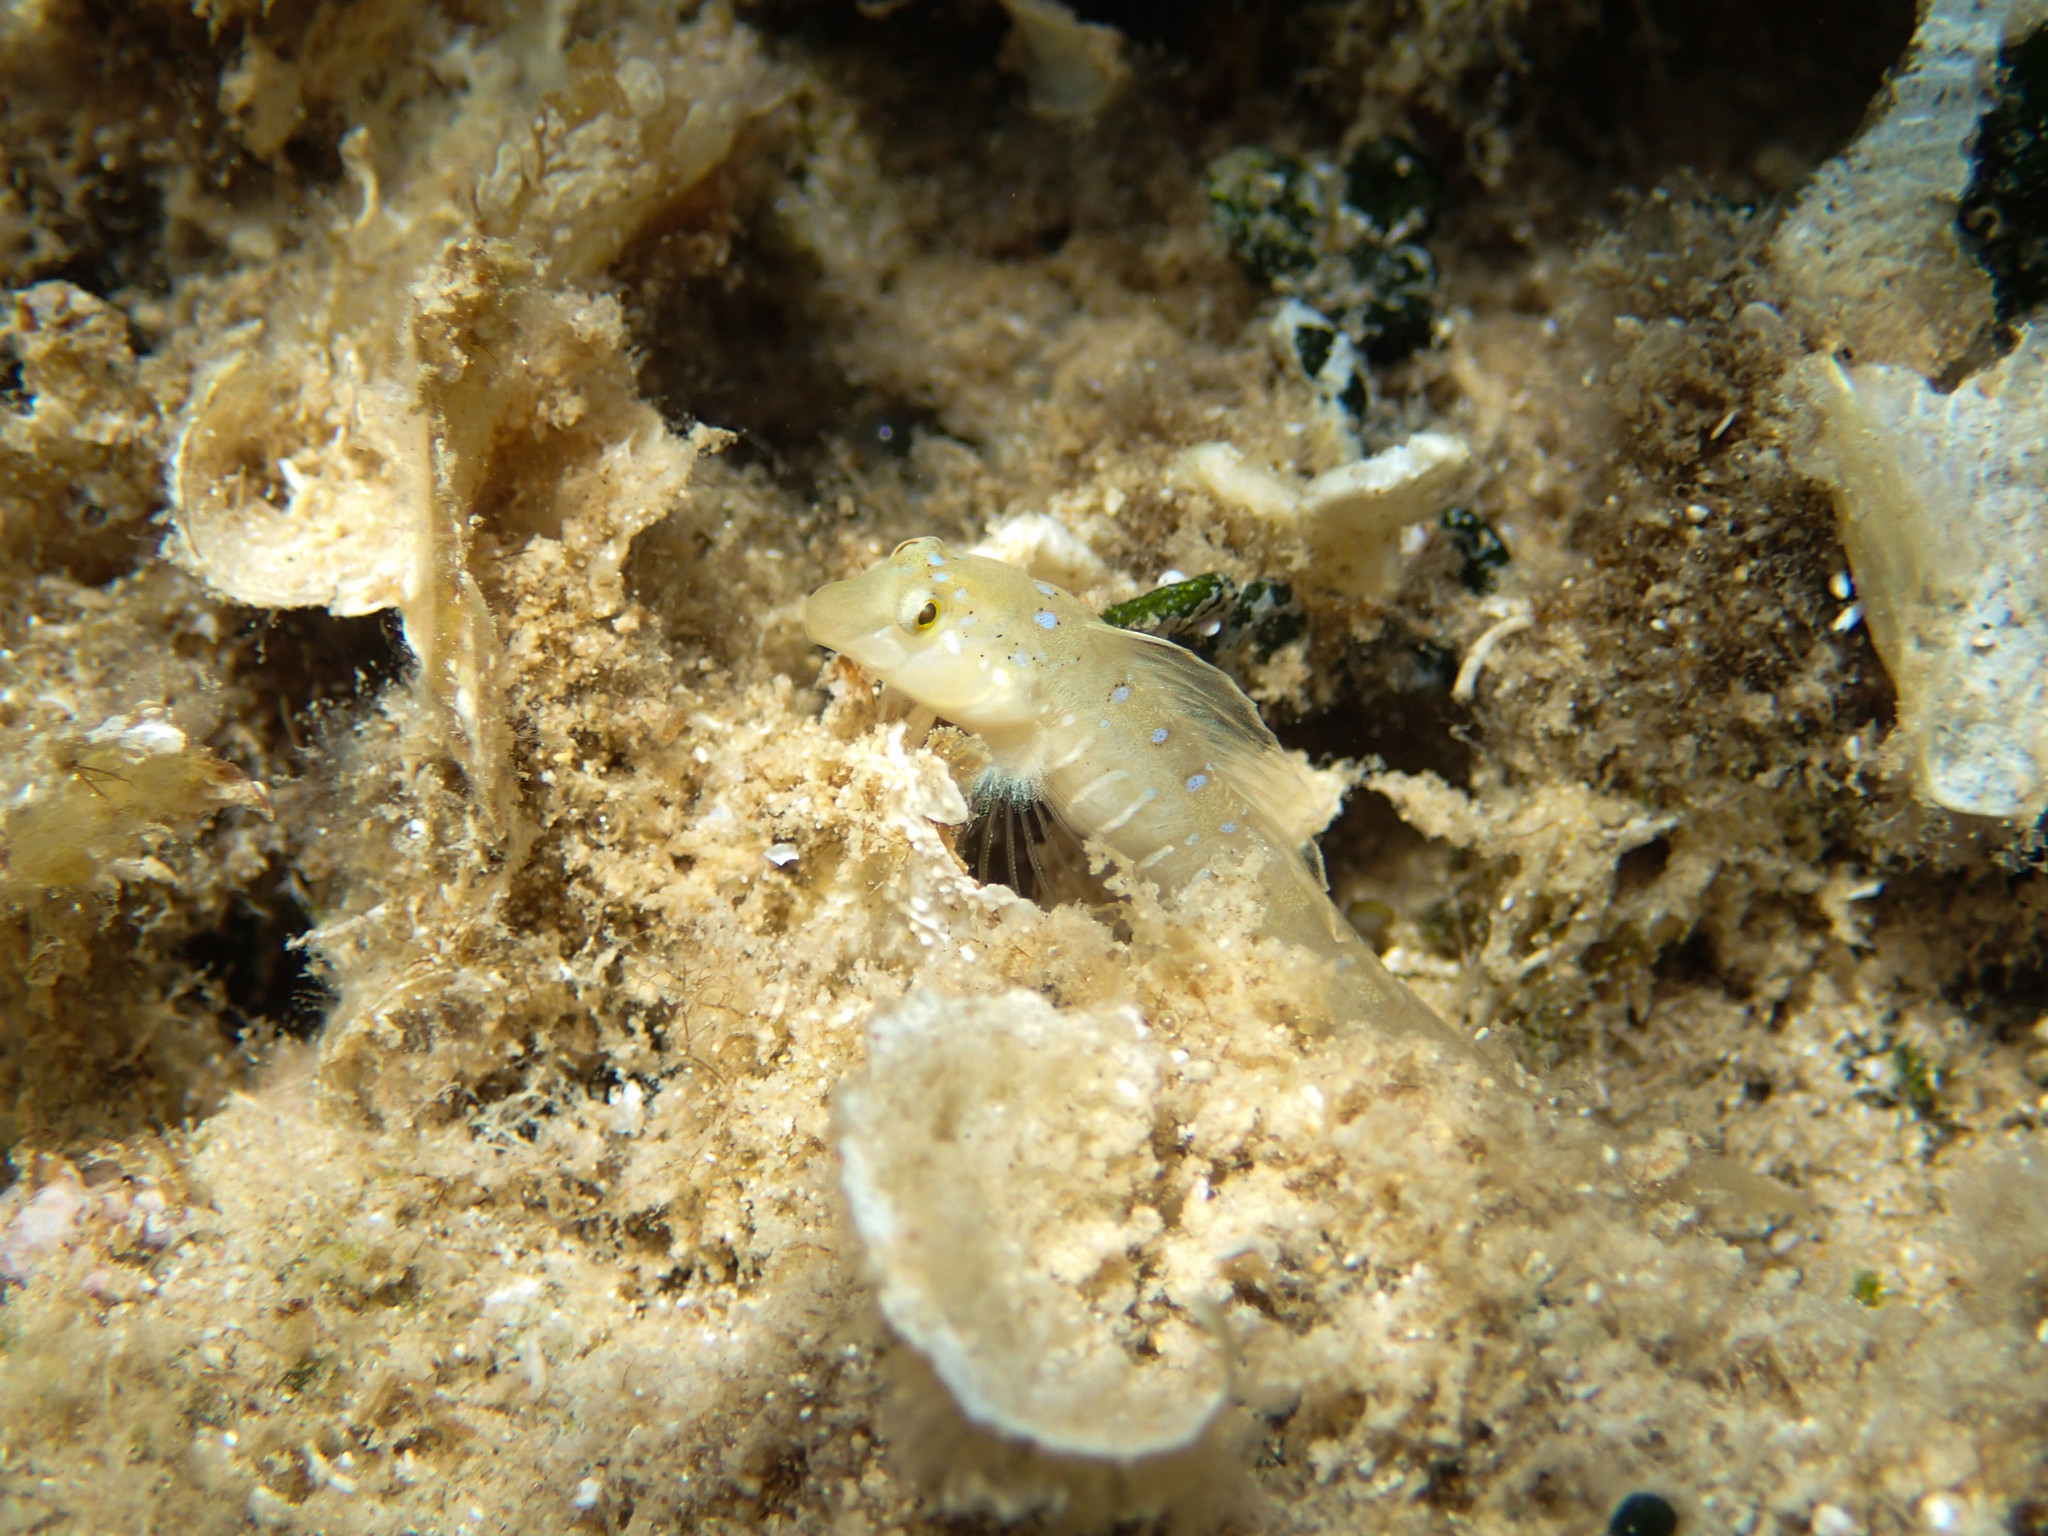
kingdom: Animalia
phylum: Chordata
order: Perciformes
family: Blenniidae
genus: Microlipophrys
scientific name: Microlipophrys dalmatinus
